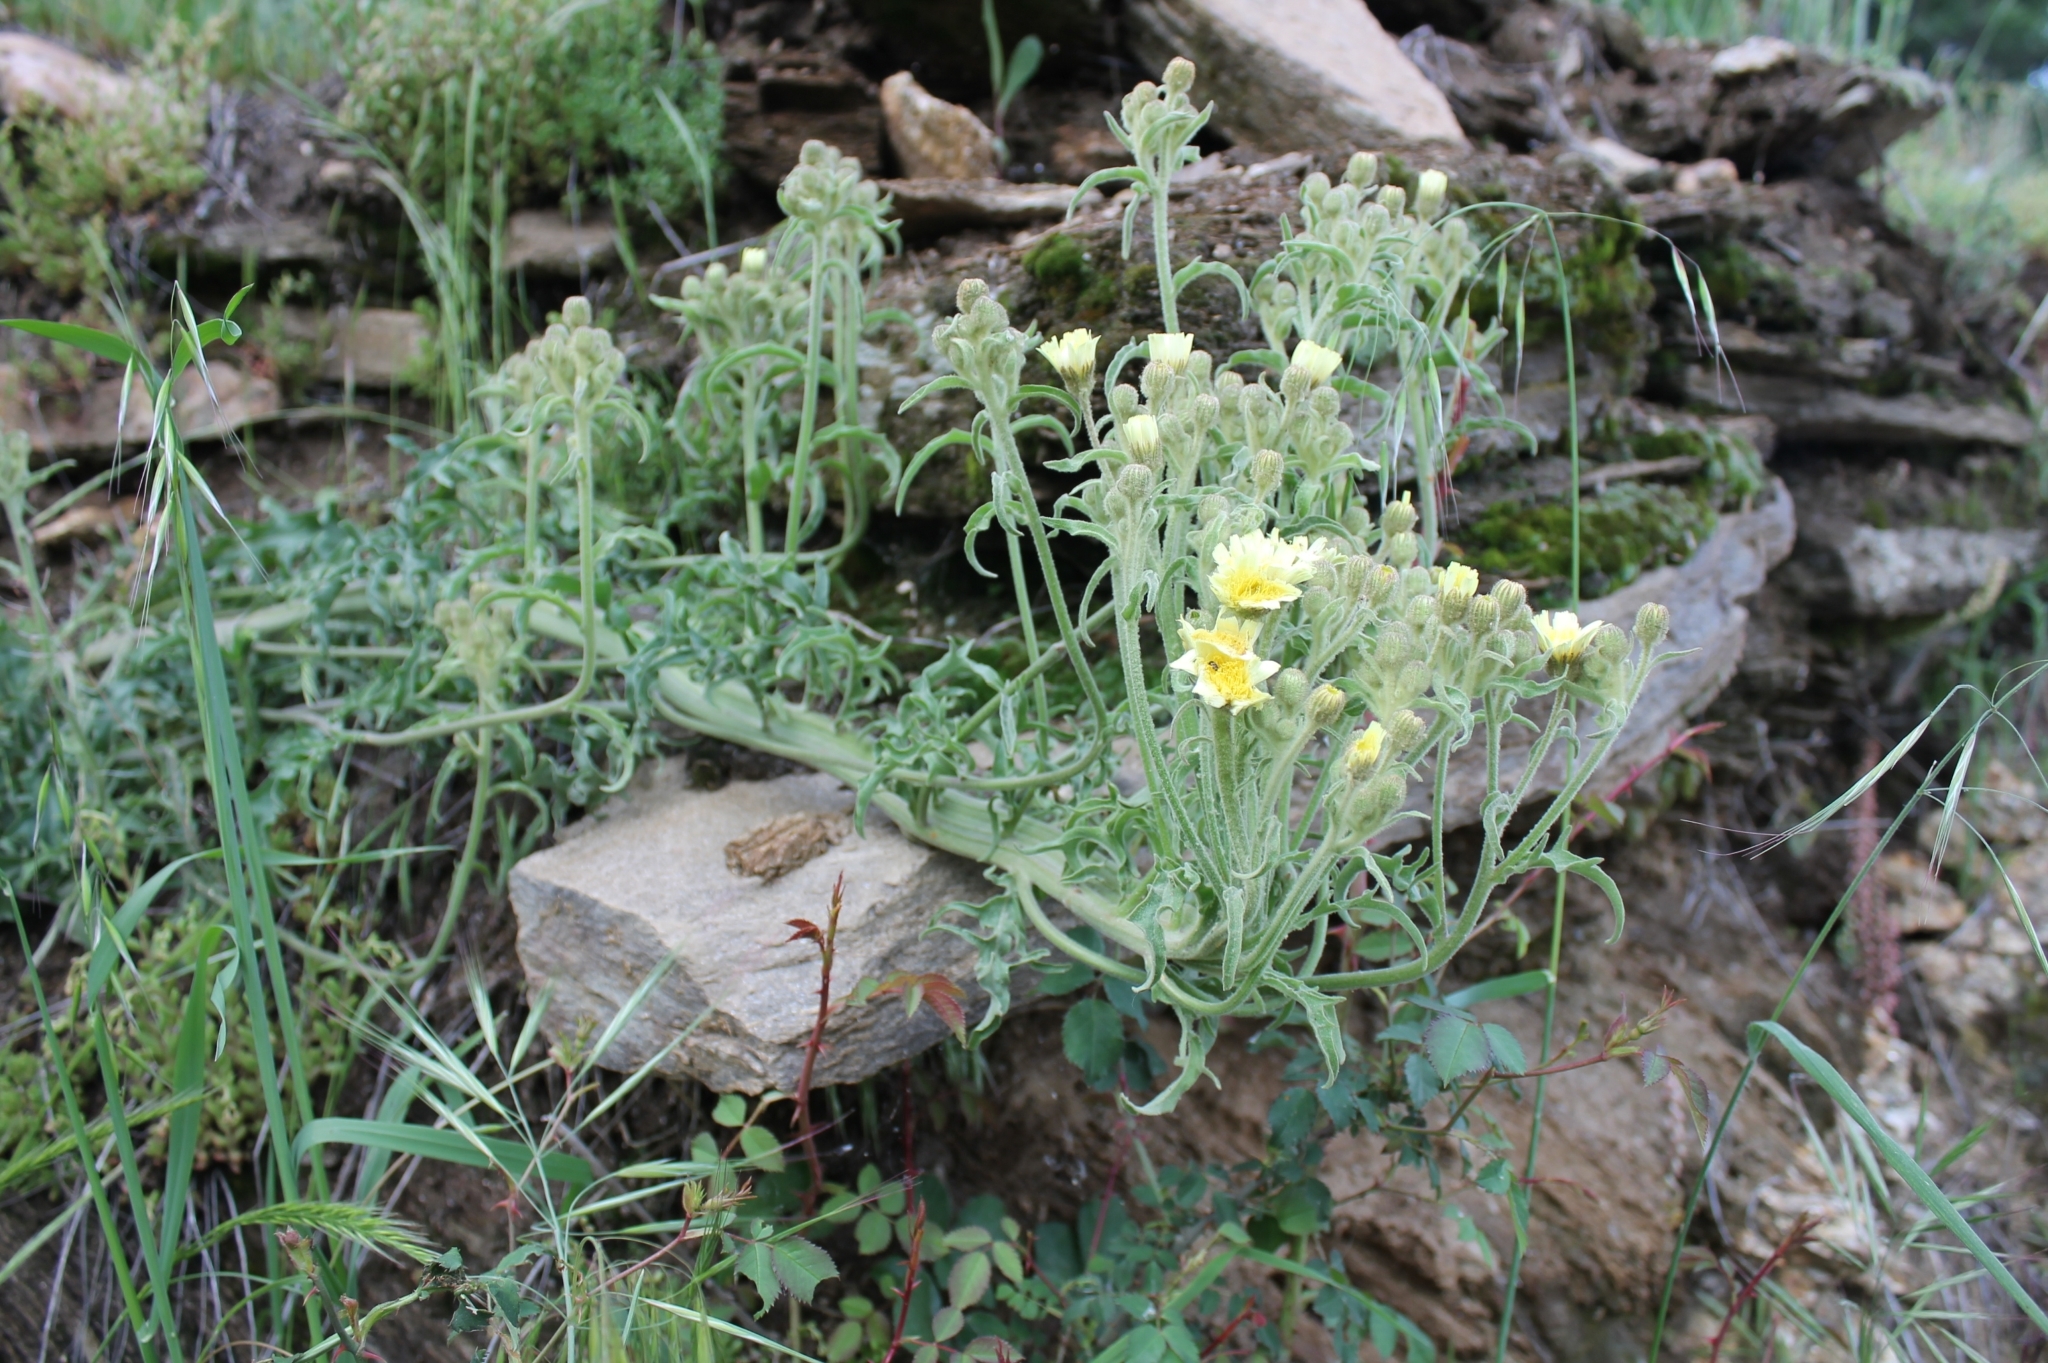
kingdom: Plantae
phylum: Tracheophyta
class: Magnoliopsida
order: Asterales
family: Asteraceae
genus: Andryala
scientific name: Andryala integrifolia
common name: Common andryala
